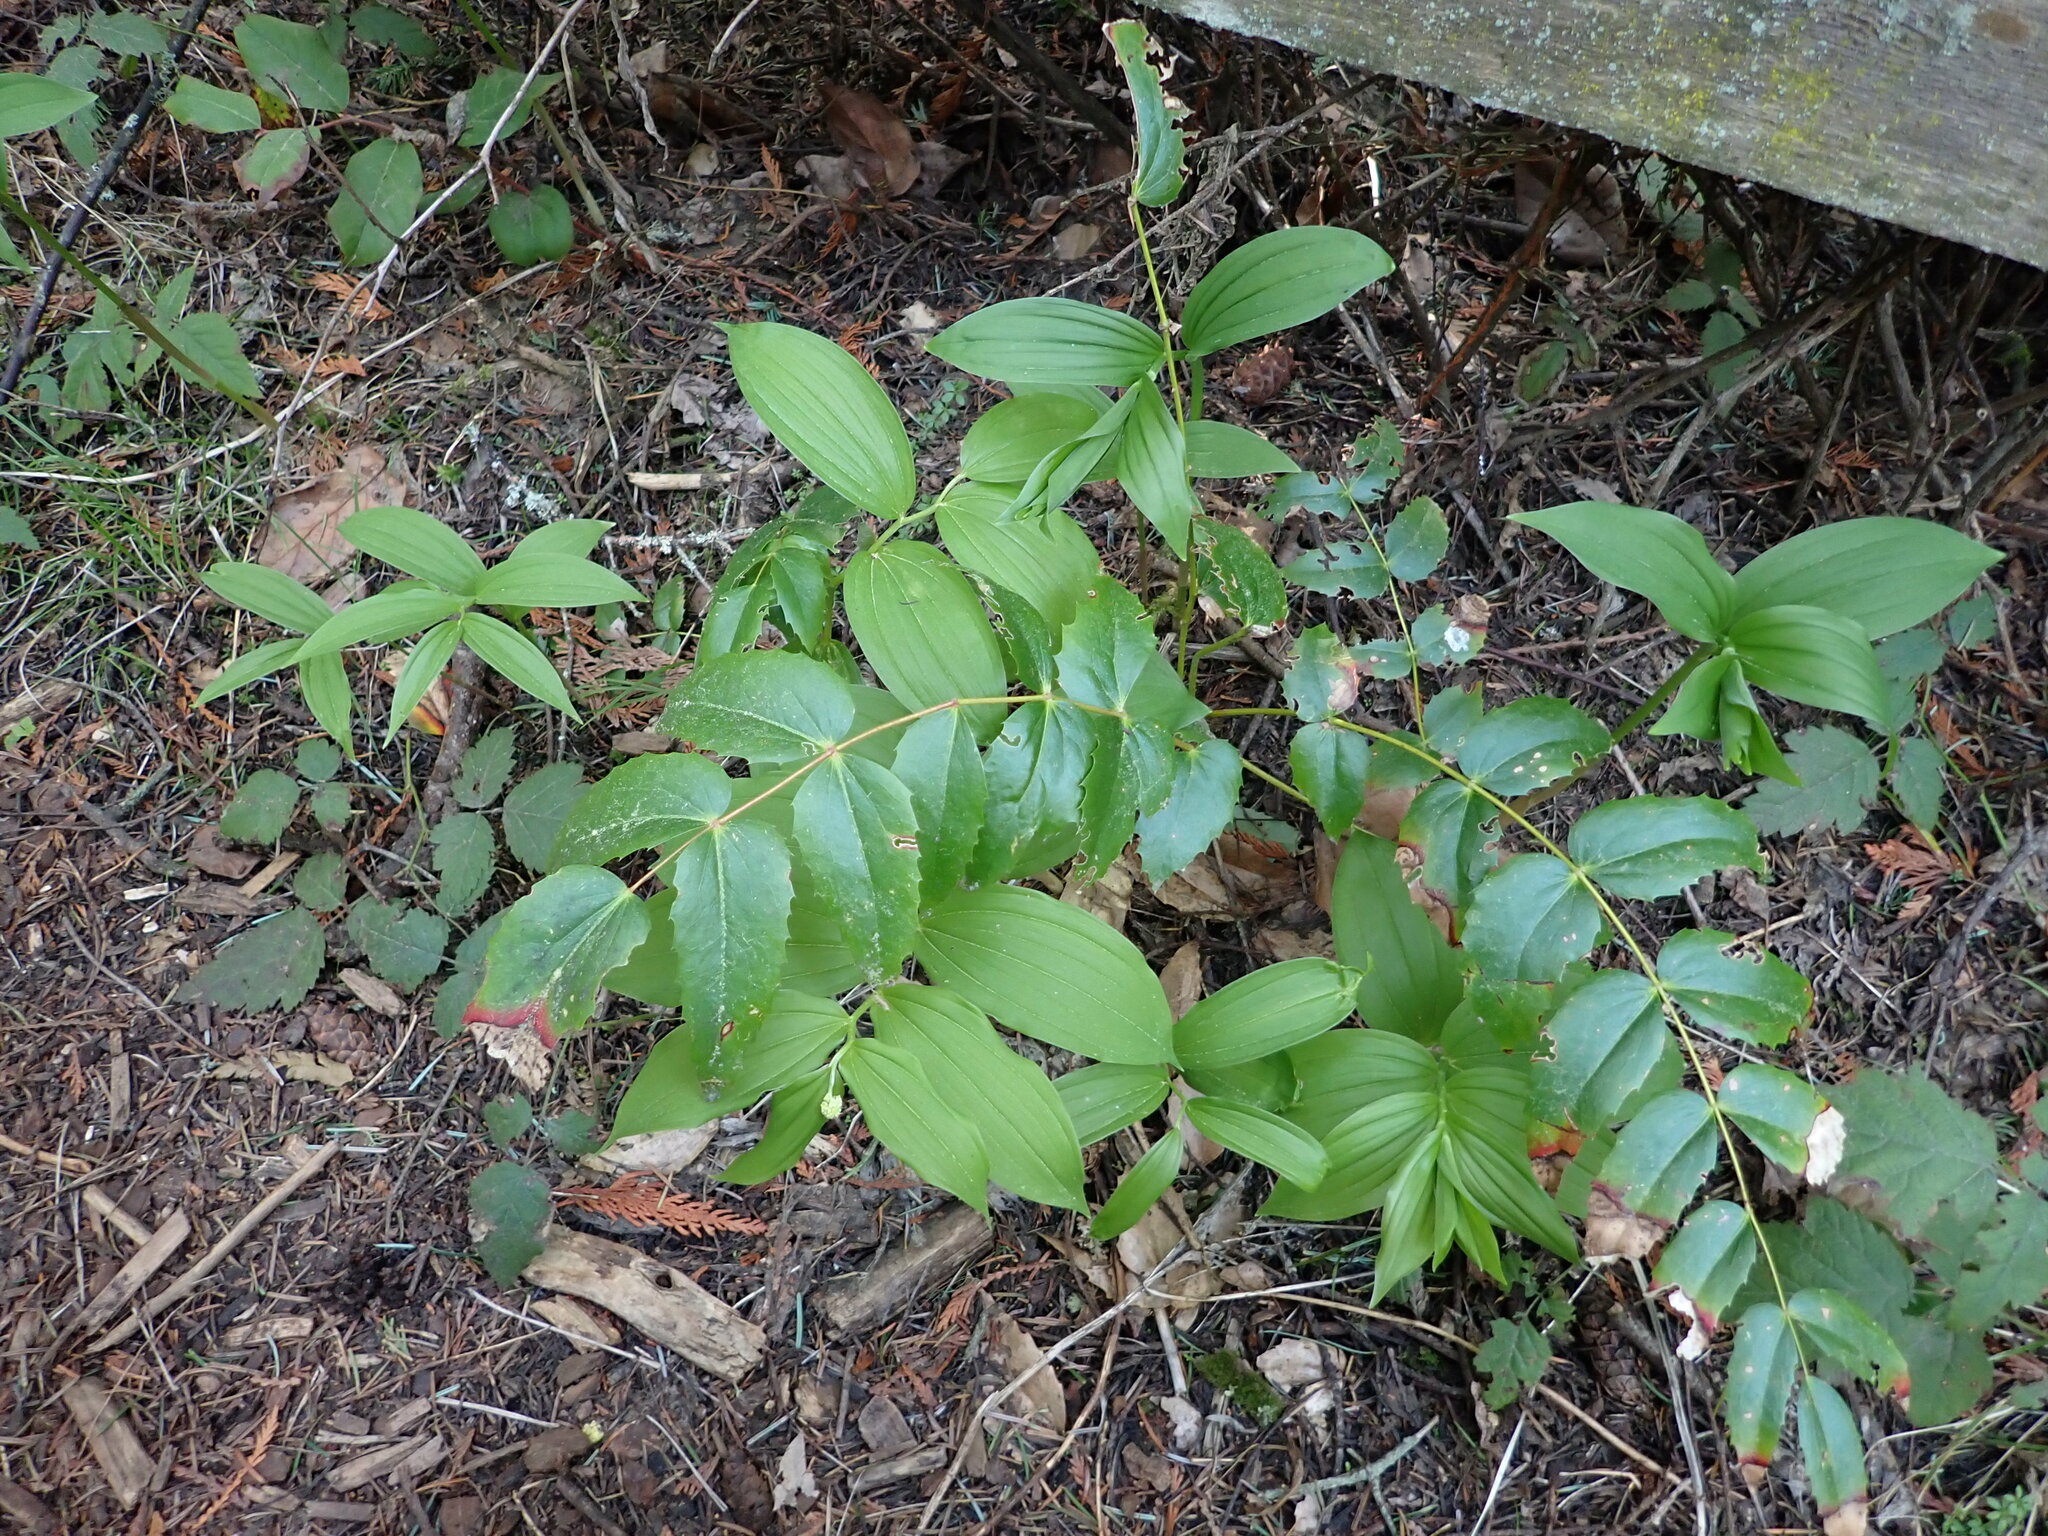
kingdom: Plantae
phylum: Tracheophyta
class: Liliopsida
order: Asparagales
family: Asparagaceae
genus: Maianthemum
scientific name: Maianthemum racemosum
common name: False spikenard
